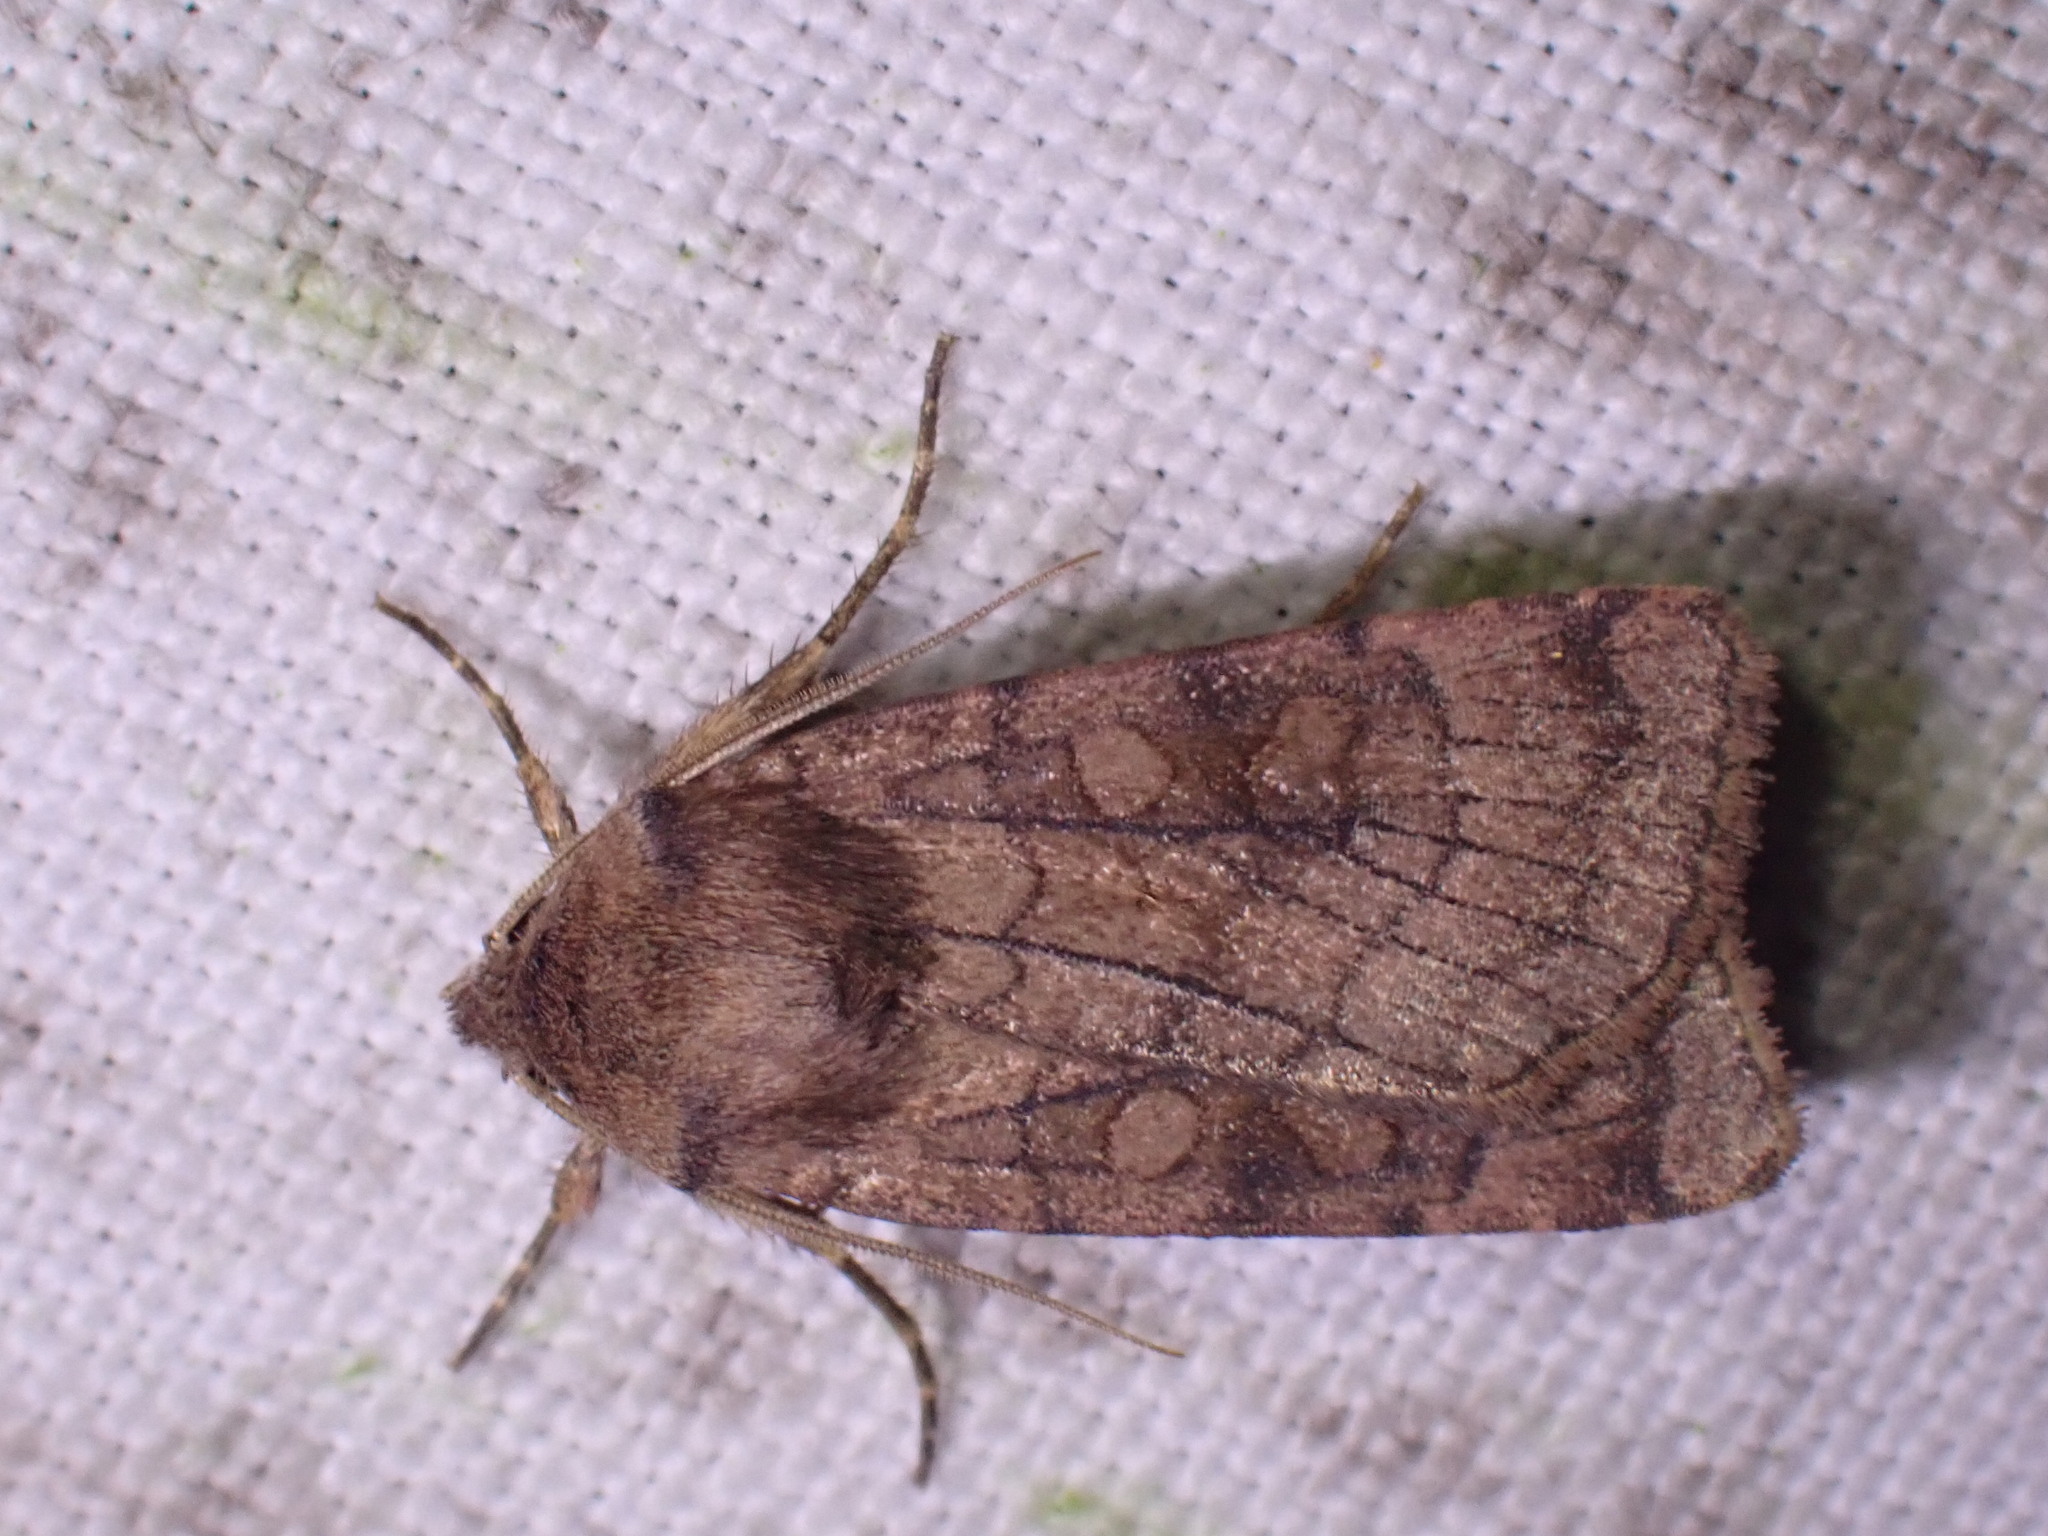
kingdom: Animalia
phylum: Arthropoda
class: Insecta
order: Lepidoptera
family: Noctuidae
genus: Xestia
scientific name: Xestia sexstrigata
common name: Six-striped rustic
